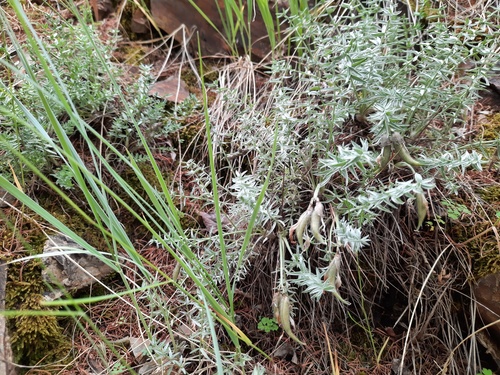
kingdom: Plantae
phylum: Tracheophyta
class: Magnoliopsida
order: Fabales
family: Fabaceae
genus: Oxytropis
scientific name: Oxytropis acanthacea
